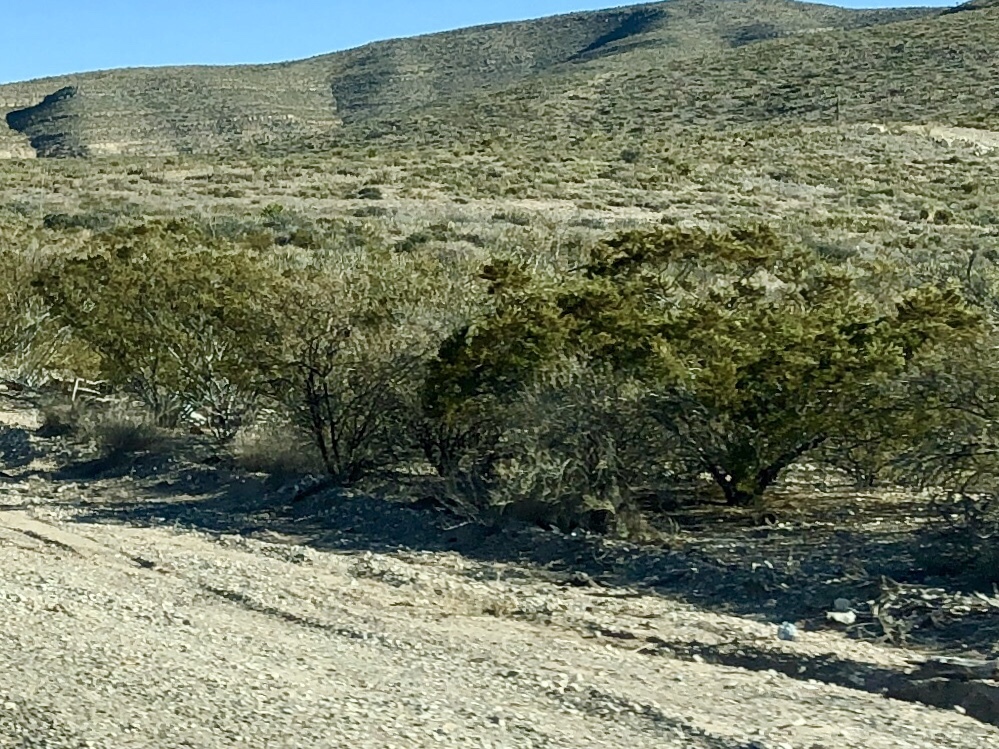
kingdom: Plantae
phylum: Tracheophyta
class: Magnoliopsida
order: Zygophyllales
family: Zygophyllaceae
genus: Larrea
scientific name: Larrea tridentata
